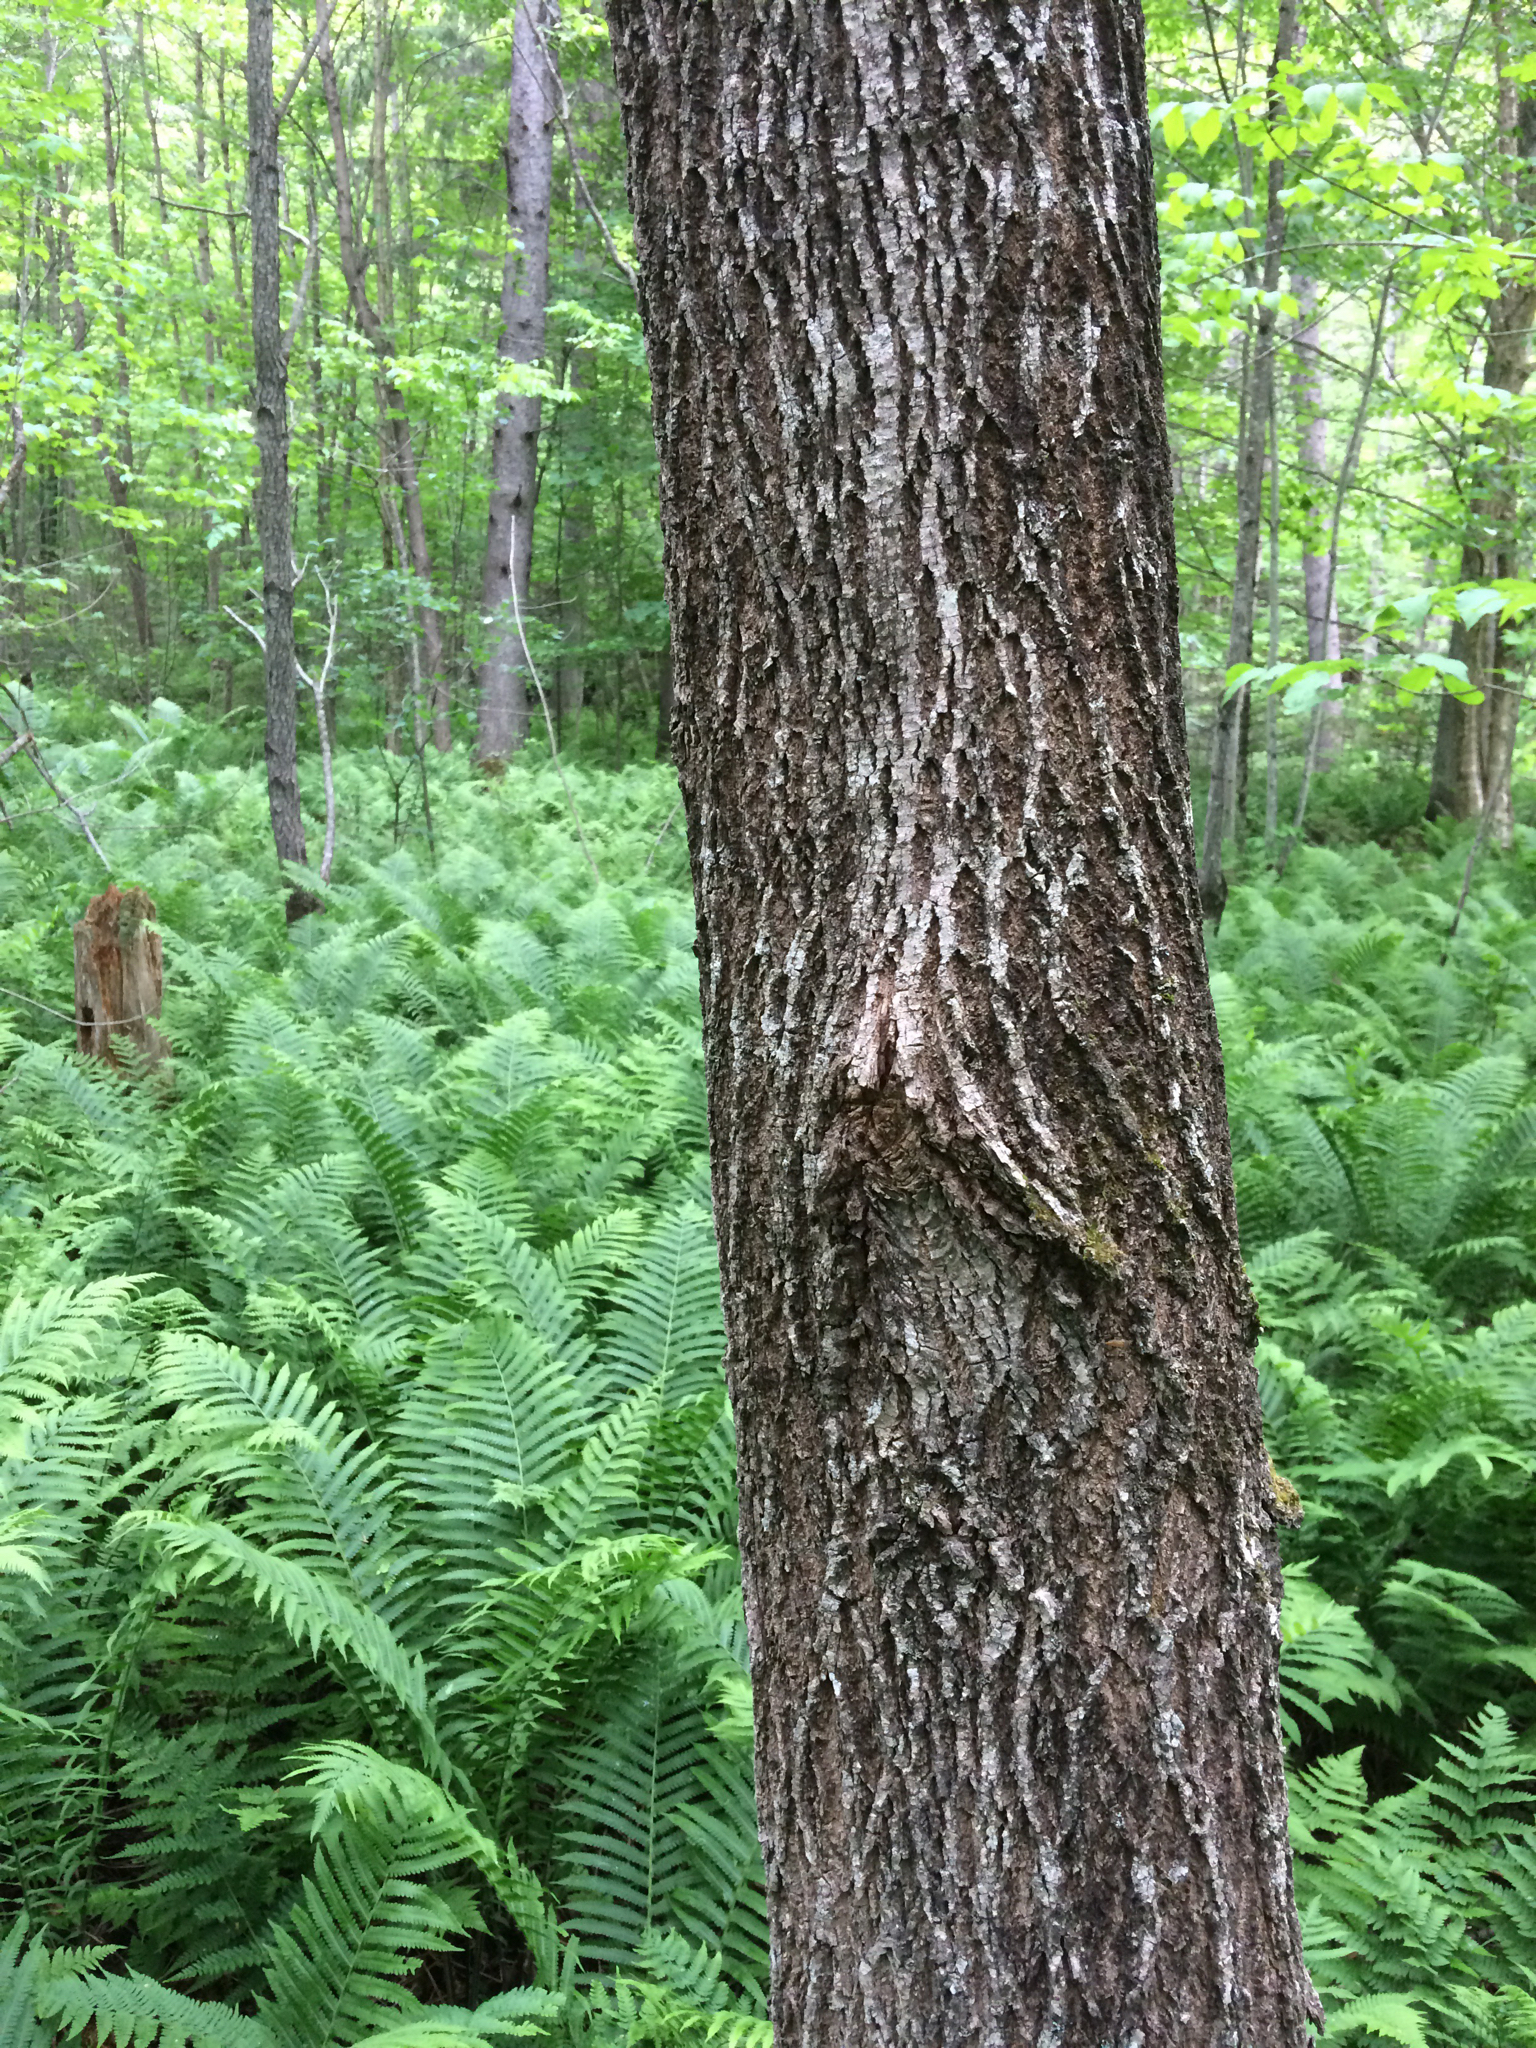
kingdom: Plantae
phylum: Tracheophyta
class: Magnoliopsida
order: Lamiales
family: Oleaceae
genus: Fraxinus
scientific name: Fraxinus americana
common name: White ash
